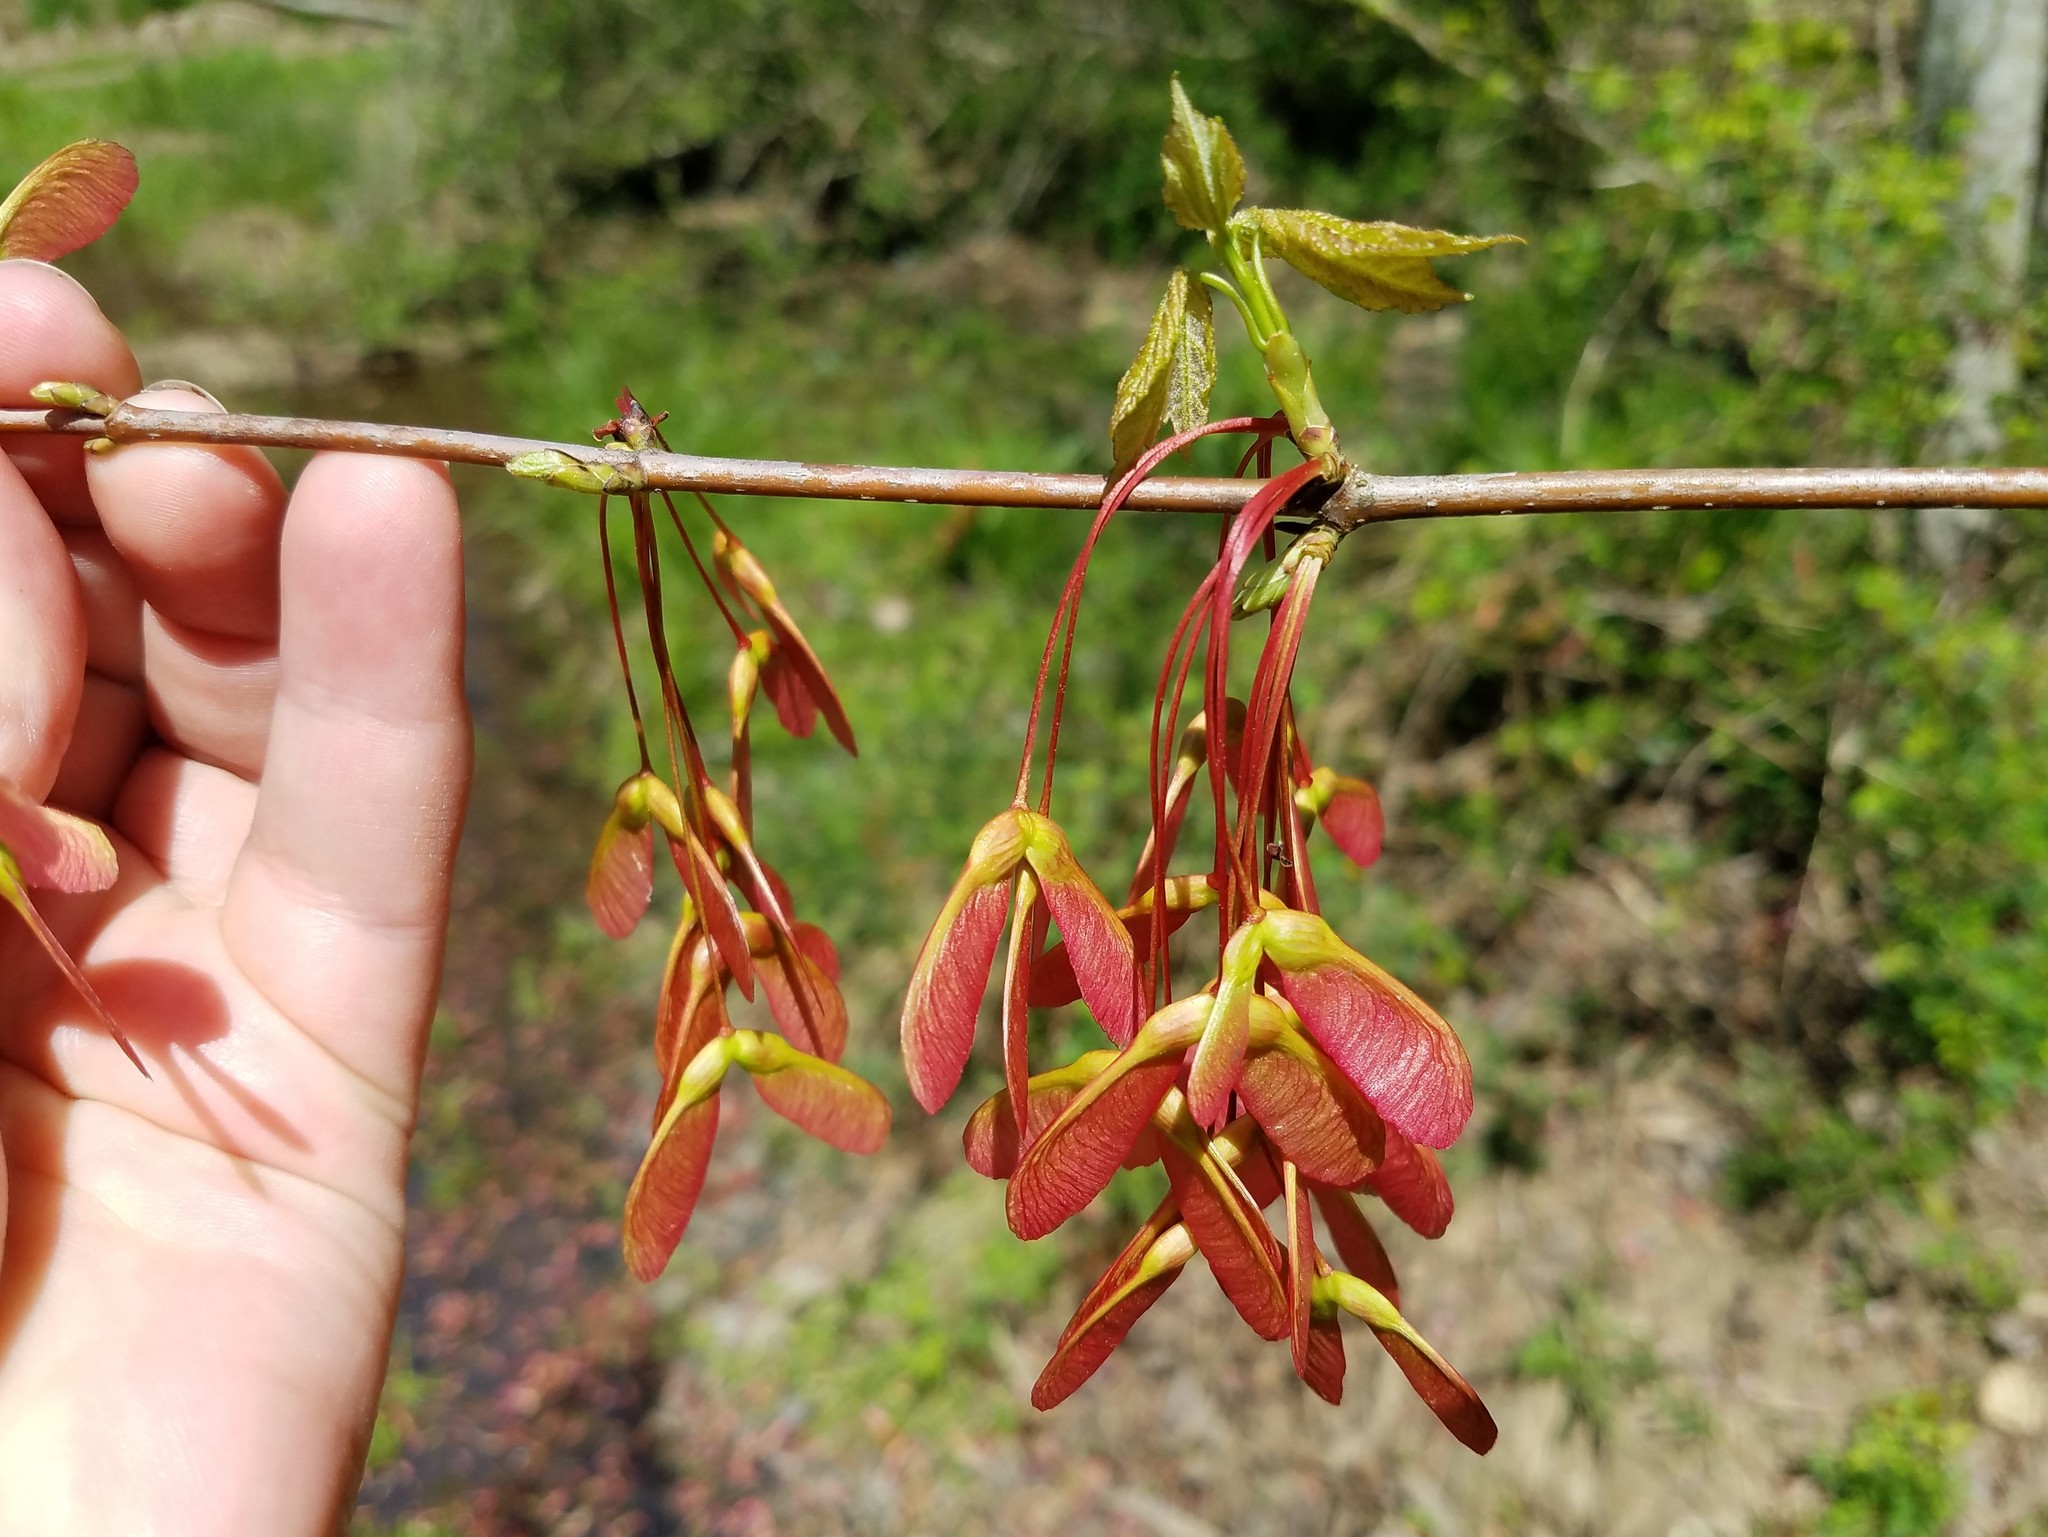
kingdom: Plantae
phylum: Tracheophyta
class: Magnoliopsida
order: Sapindales
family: Sapindaceae
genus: Acer
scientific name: Acer rubrum
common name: Red maple
